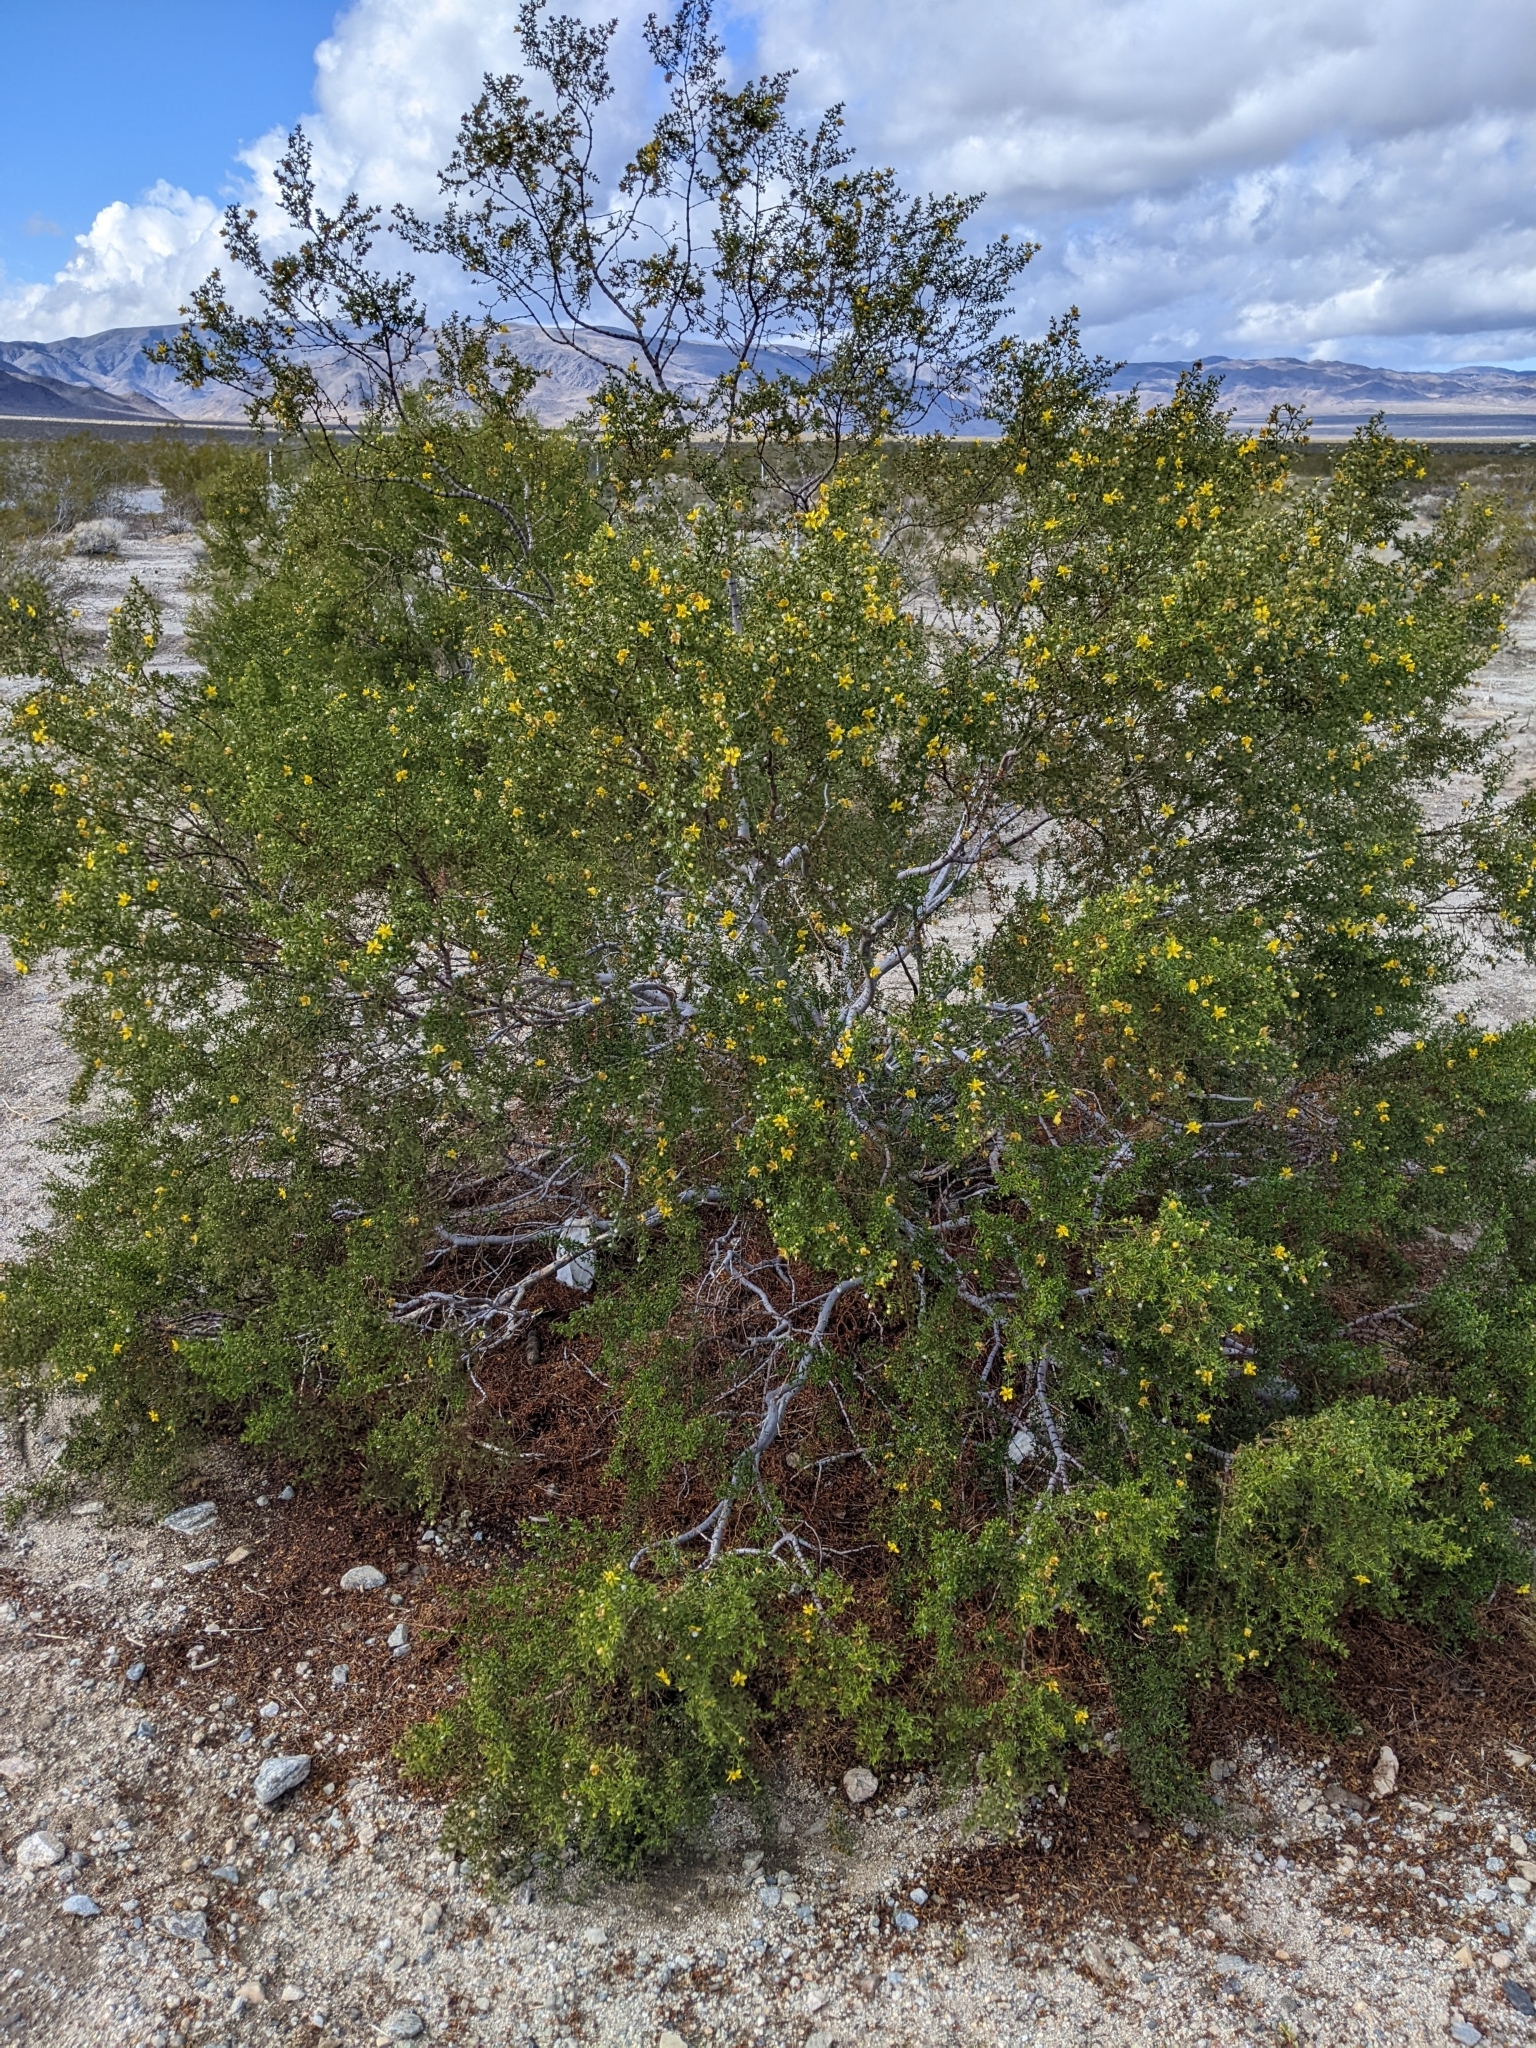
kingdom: Plantae
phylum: Tracheophyta
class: Magnoliopsida
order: Zygophyllales
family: Zygophyllaceae
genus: Larrea
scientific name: Larrea tridentata
